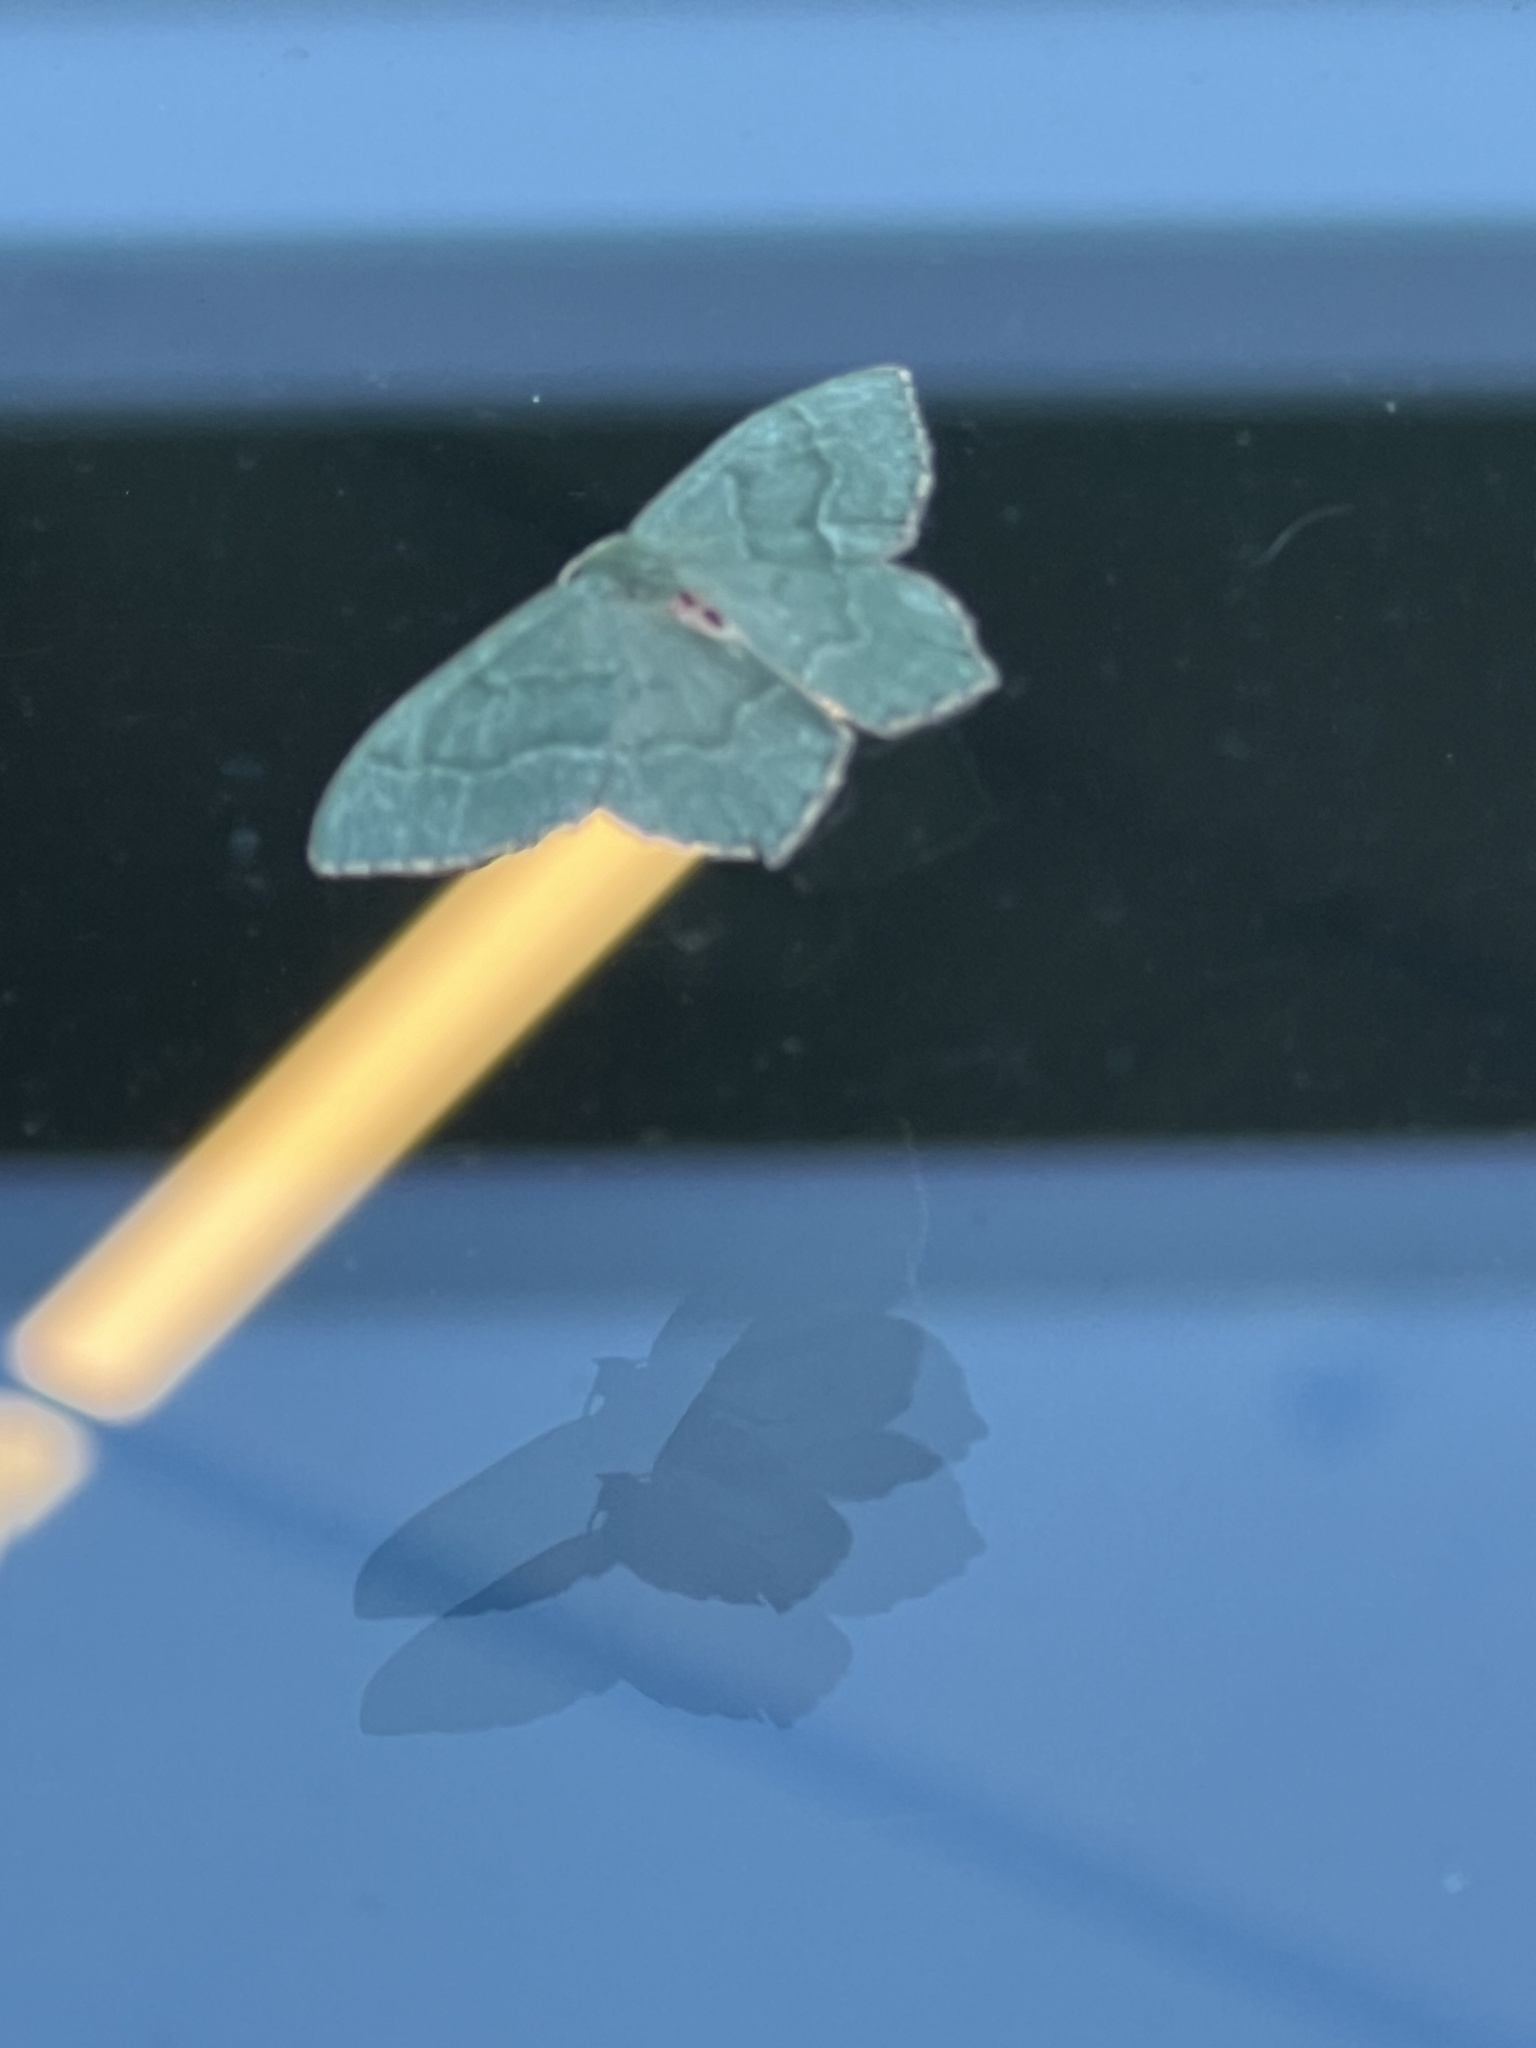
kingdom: Animalia
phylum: Arthropoda
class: Insecta
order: Lepidoptera
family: Geometridae
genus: Hemithea
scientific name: Hemithea aestivaria
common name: Common emerald
